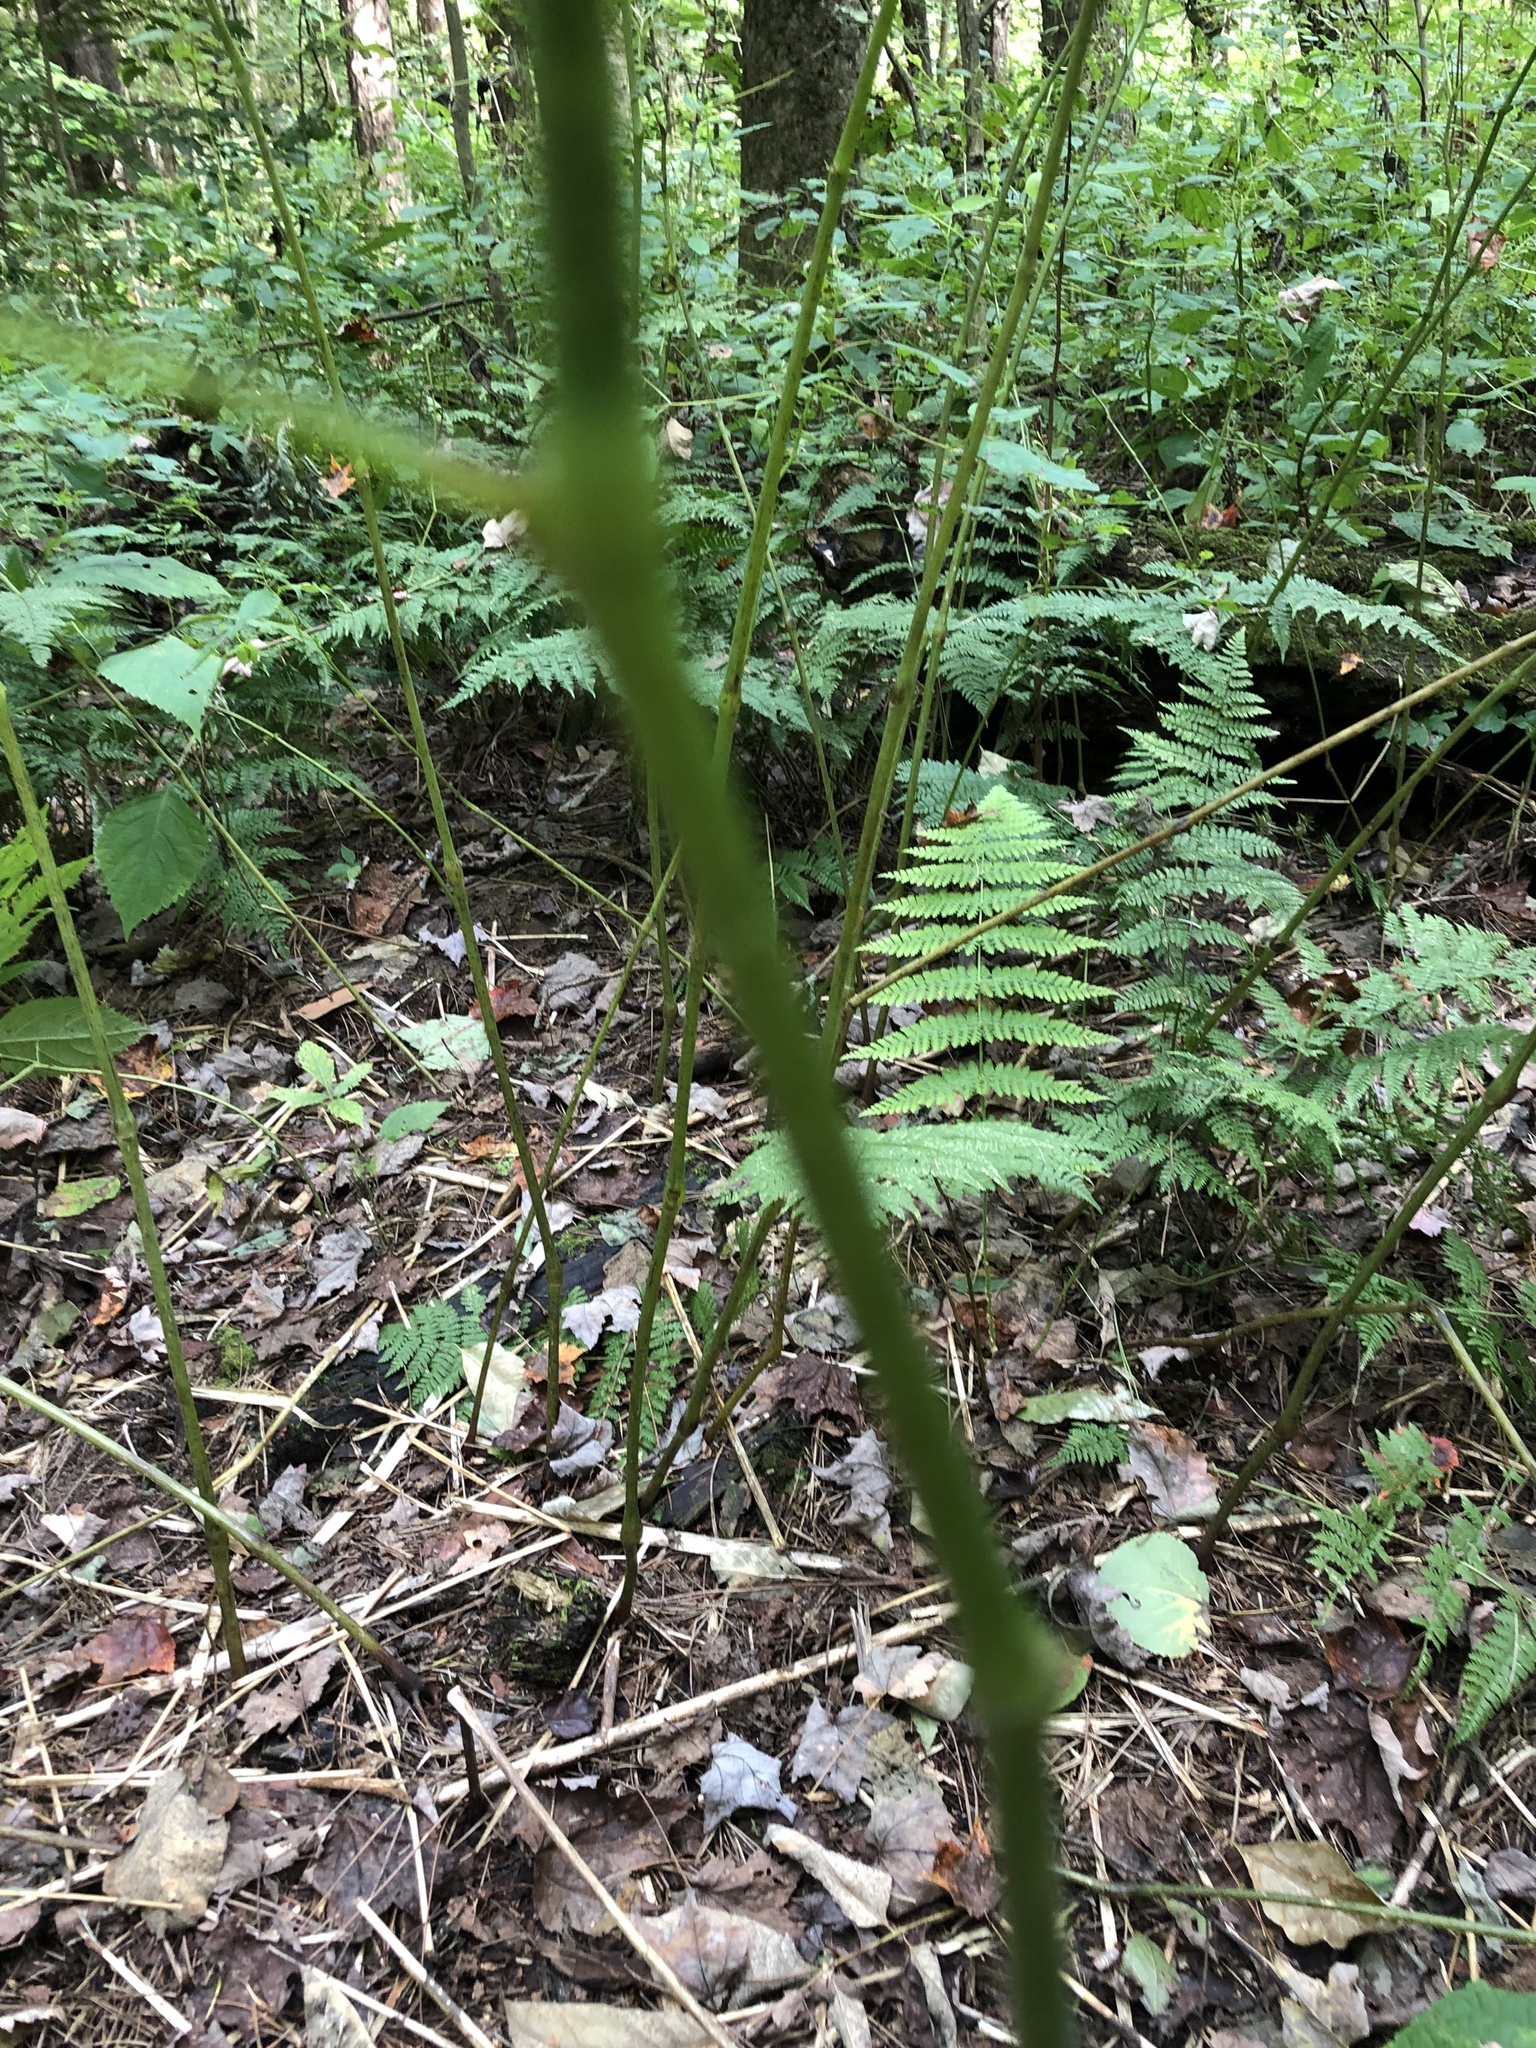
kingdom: Plantae
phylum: Tracheophyta
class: Magnoliopsida
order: Ericales
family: Balsaminaceae
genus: Impatiens
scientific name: Impatiens pallida
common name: Pale snapweed
